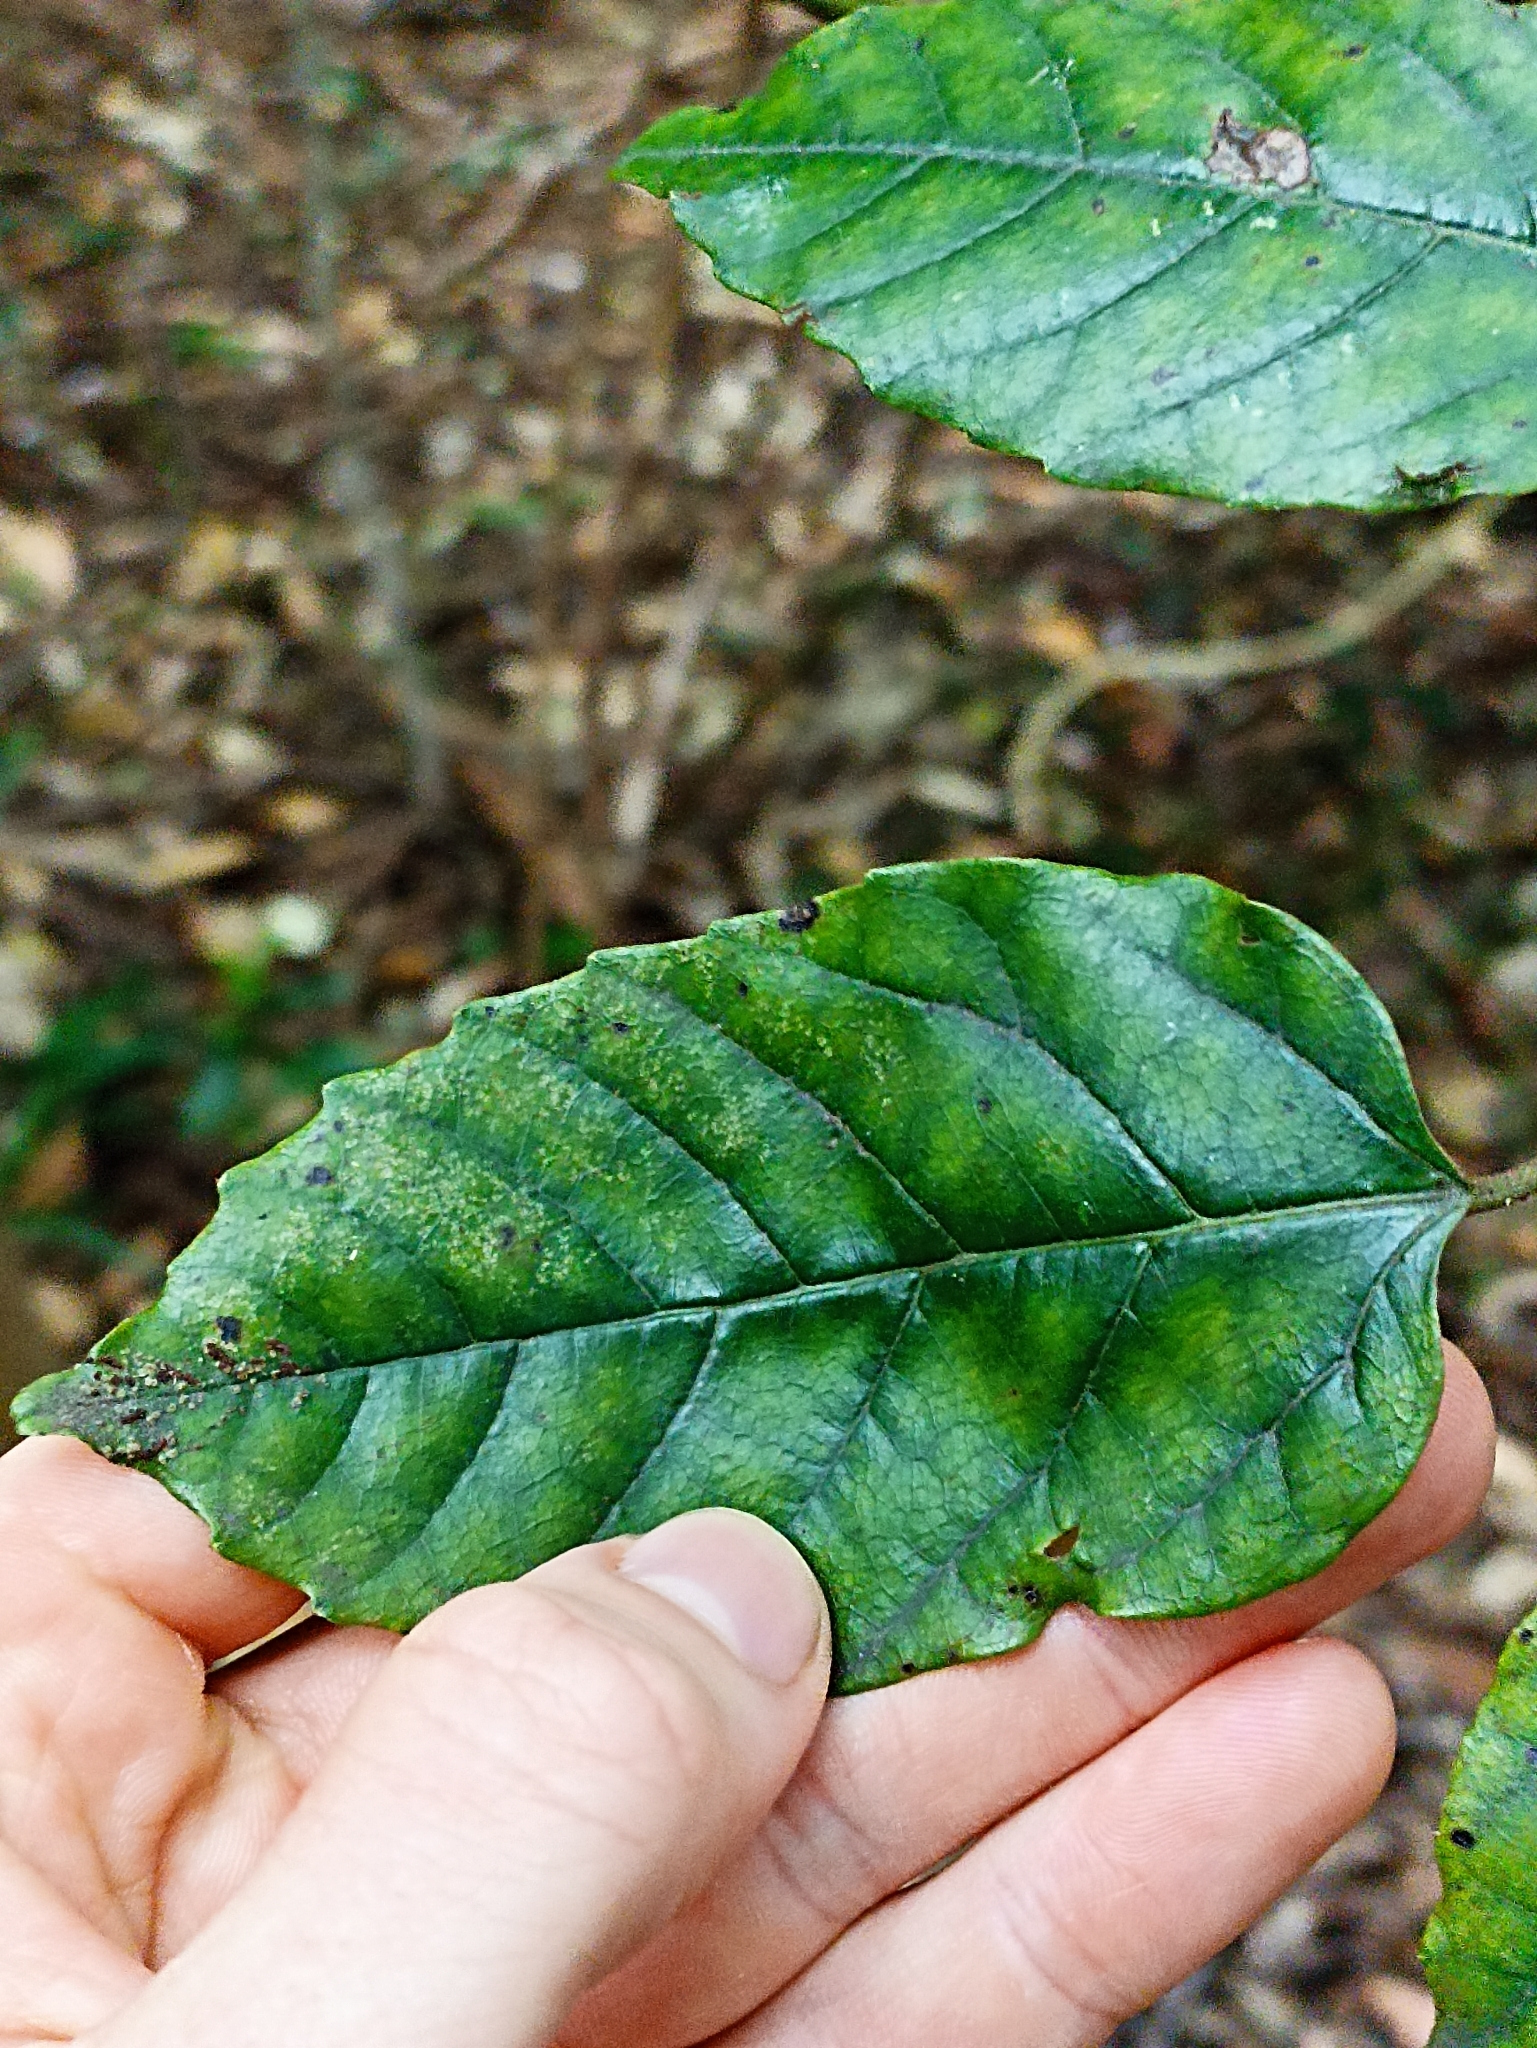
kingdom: Plantae
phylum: Tracheophyta
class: Magnoliopsida
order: Vitales
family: Vitaceae
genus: Cissus
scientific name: Cissus antarctica
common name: Kangaroo vine
